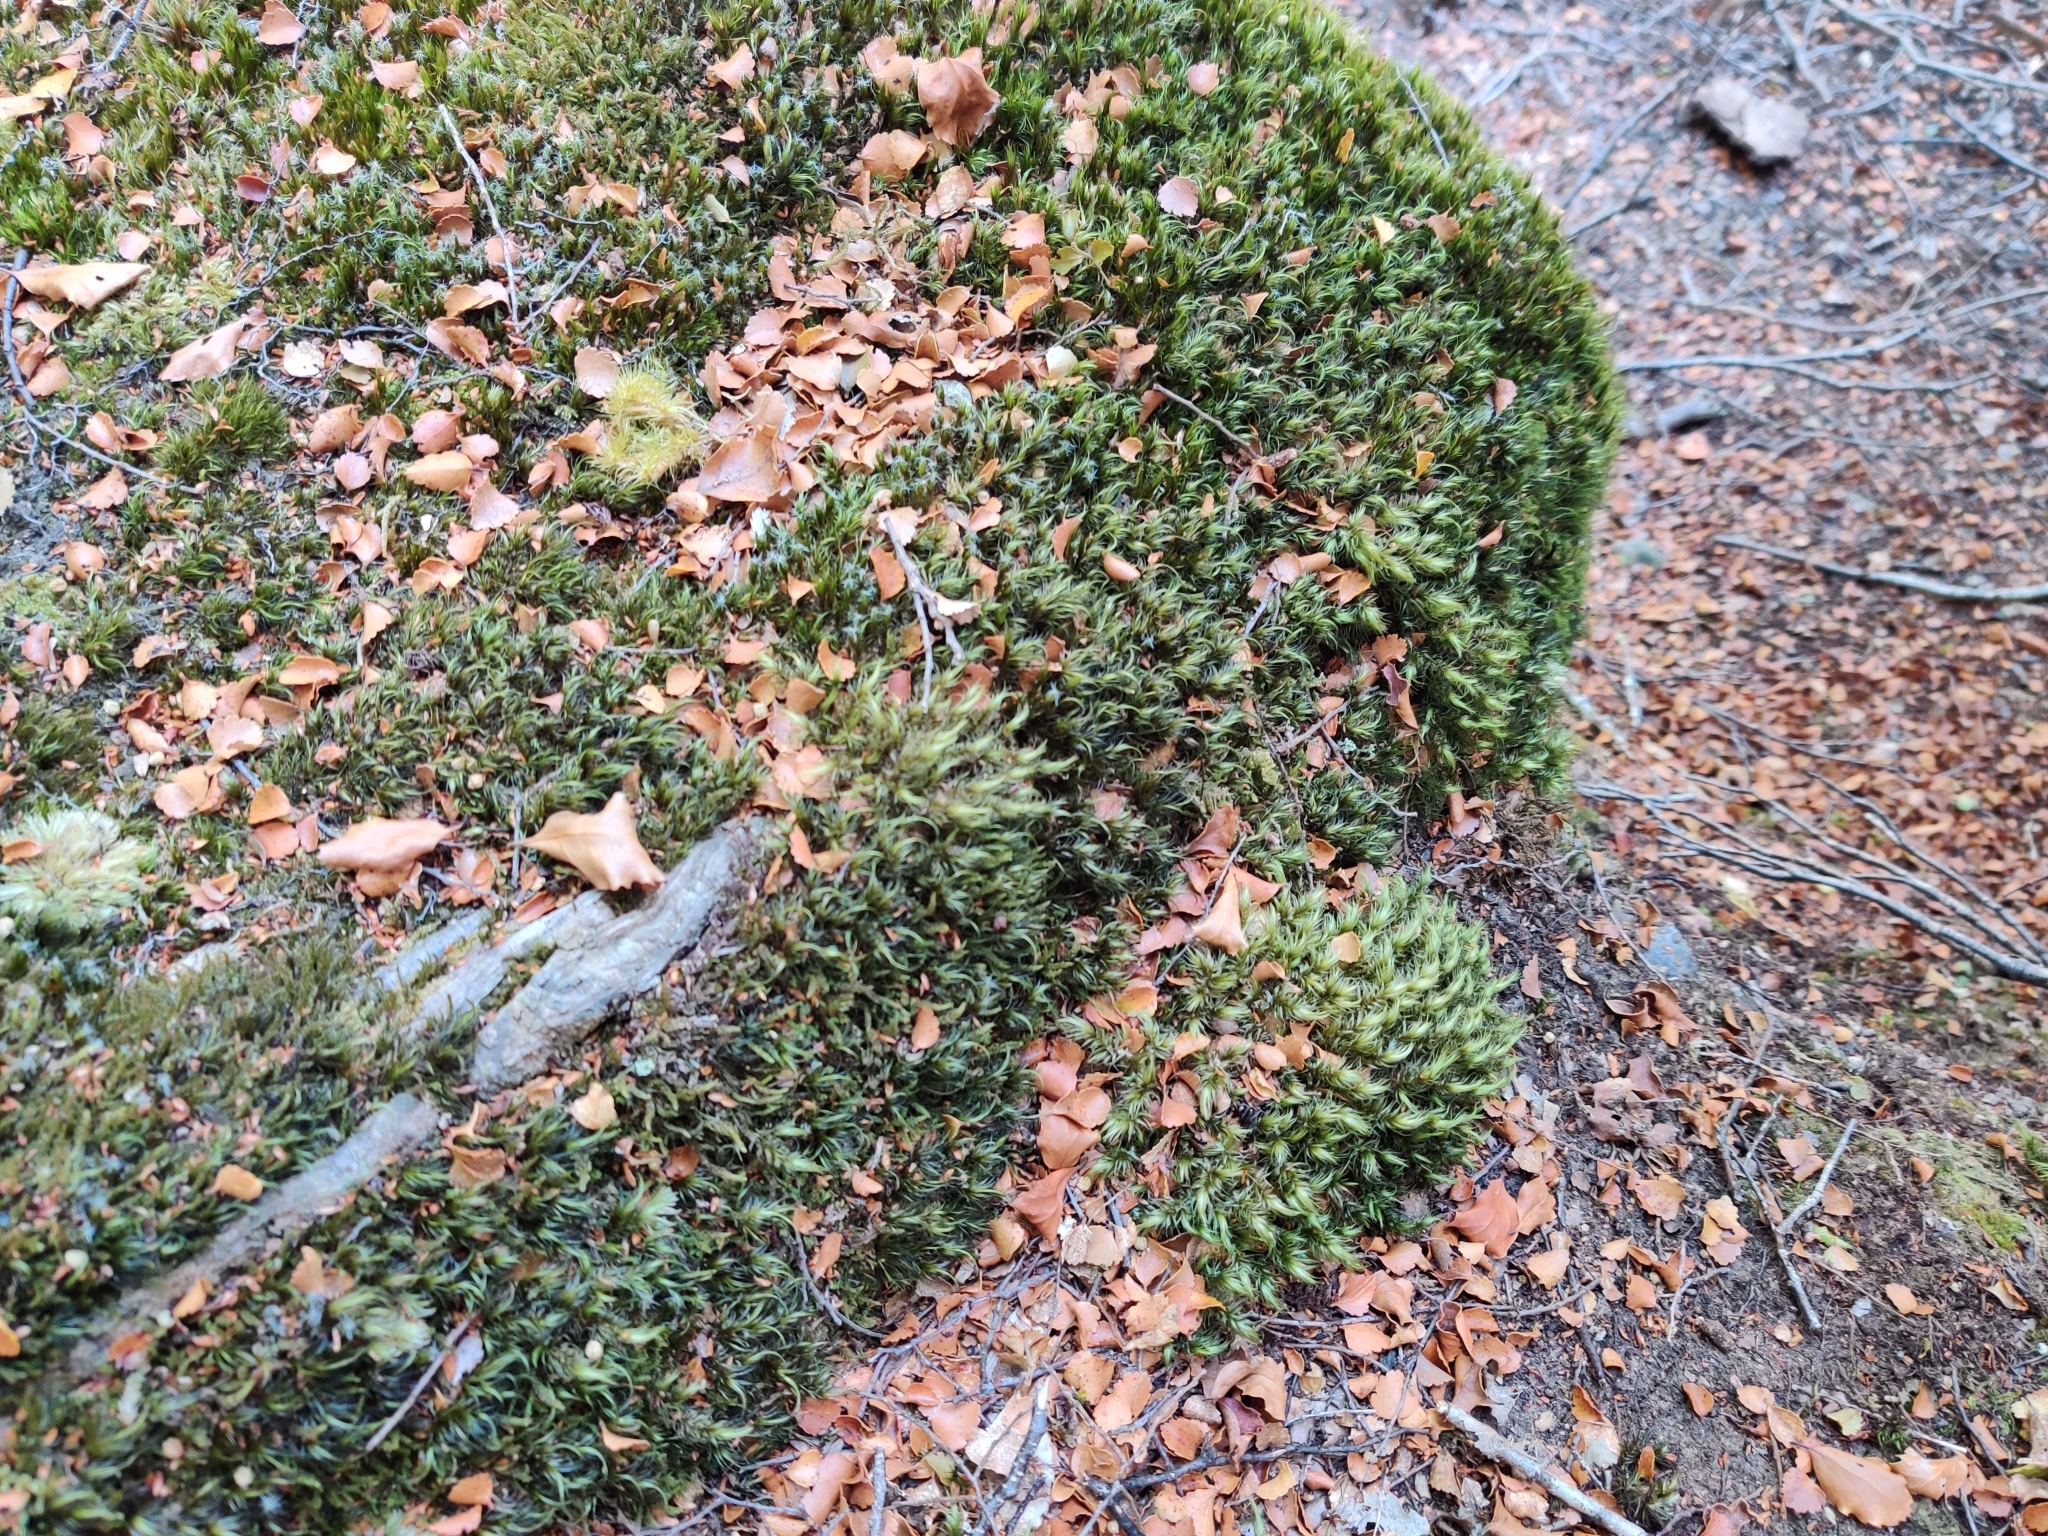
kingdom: Plantae
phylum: Bryophyta
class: Bryopsida
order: Dicranales
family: Leucobryaceae
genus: Leucobryum
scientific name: Leucobryum javense
